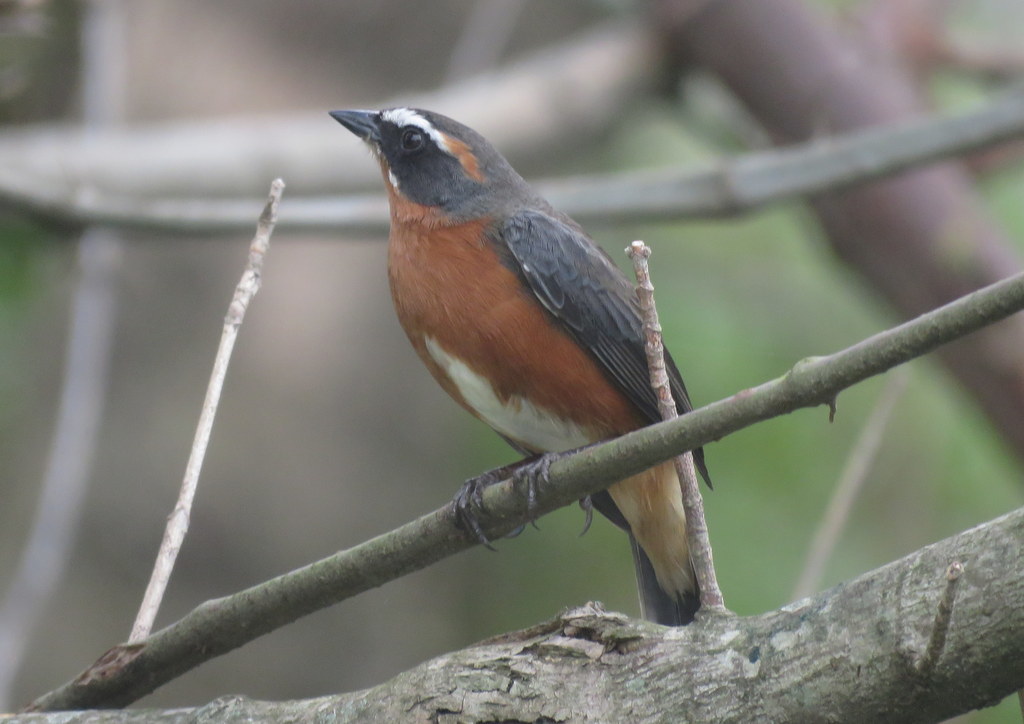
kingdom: Animalia
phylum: Chordata
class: Aves
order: Passeriformes
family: Thraupidae
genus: Poospiza
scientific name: Poospiza nigrorufa
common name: Black-and-rufous warbling finch
